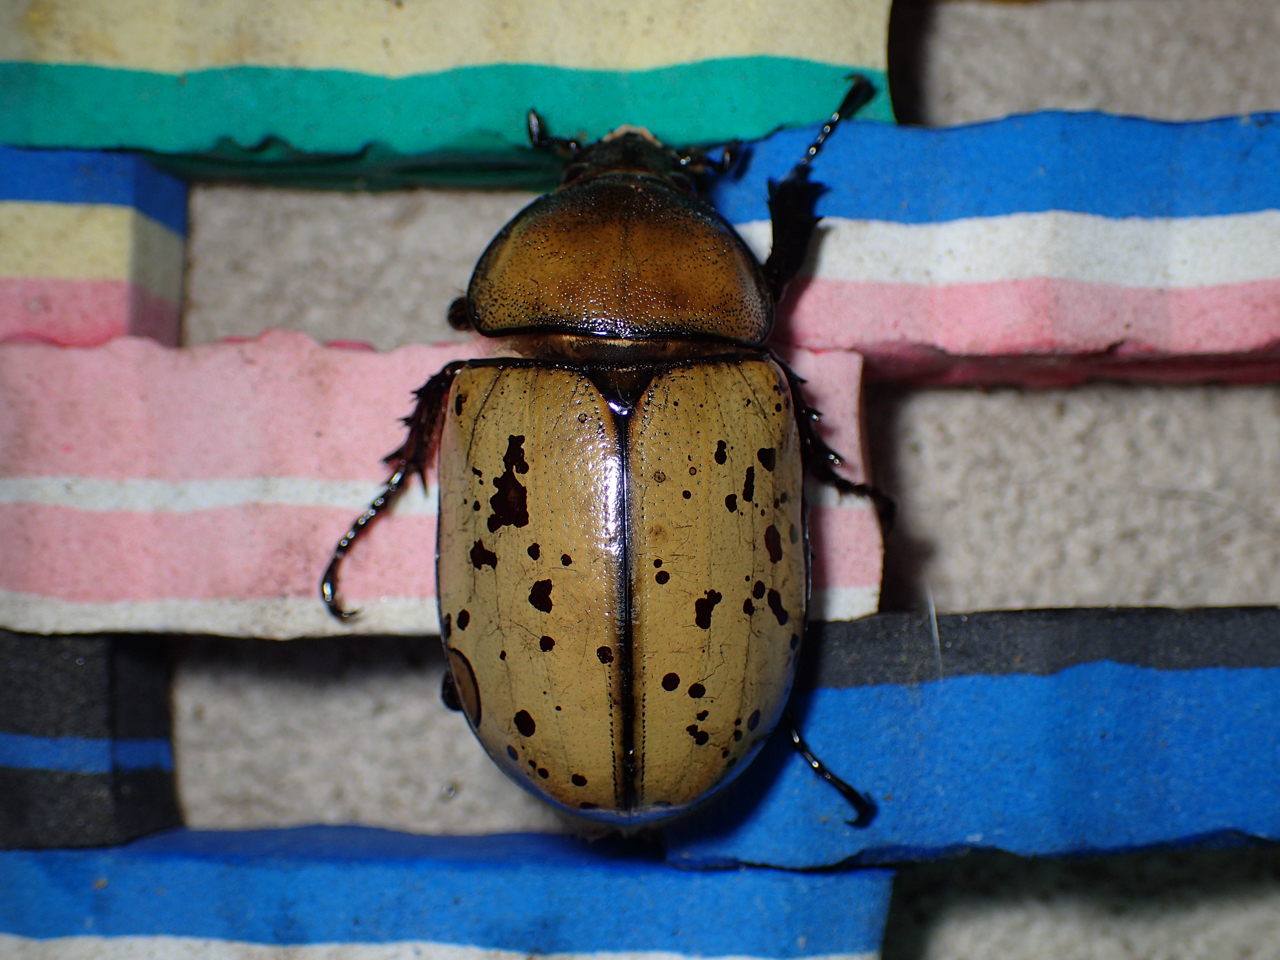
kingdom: Animalia
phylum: Arthropoda
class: Insecta
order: Coleoptera
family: Scarabaeidae
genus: Dynastes
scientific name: Dynastes tityus
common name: Eastern hercules beetle
